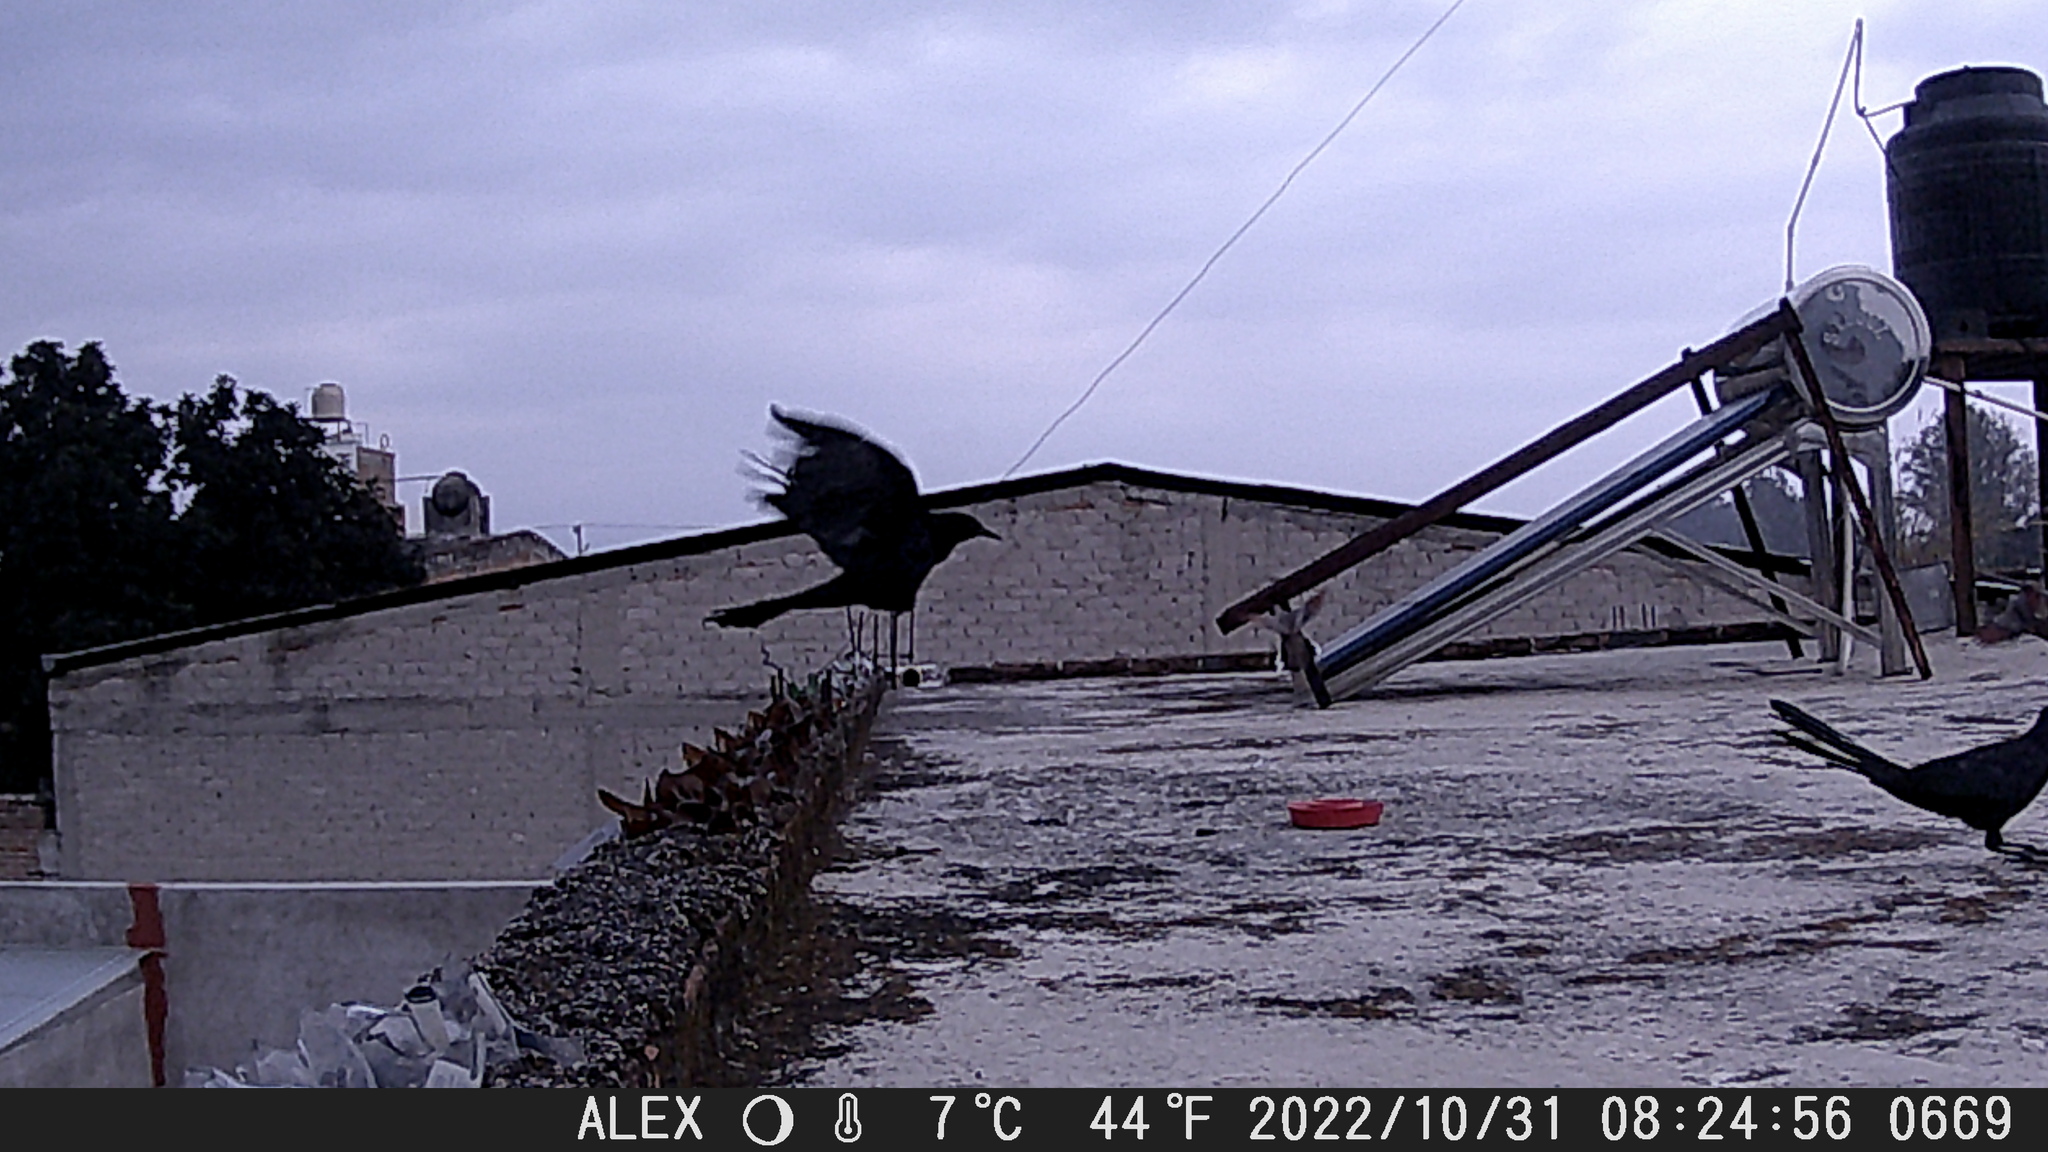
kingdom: Animalia
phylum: Chordata
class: Aves
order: Passeriformes
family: Icteridae
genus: Quiscalus
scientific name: Quiscalus mexicanus
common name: Great-tailed grackle
